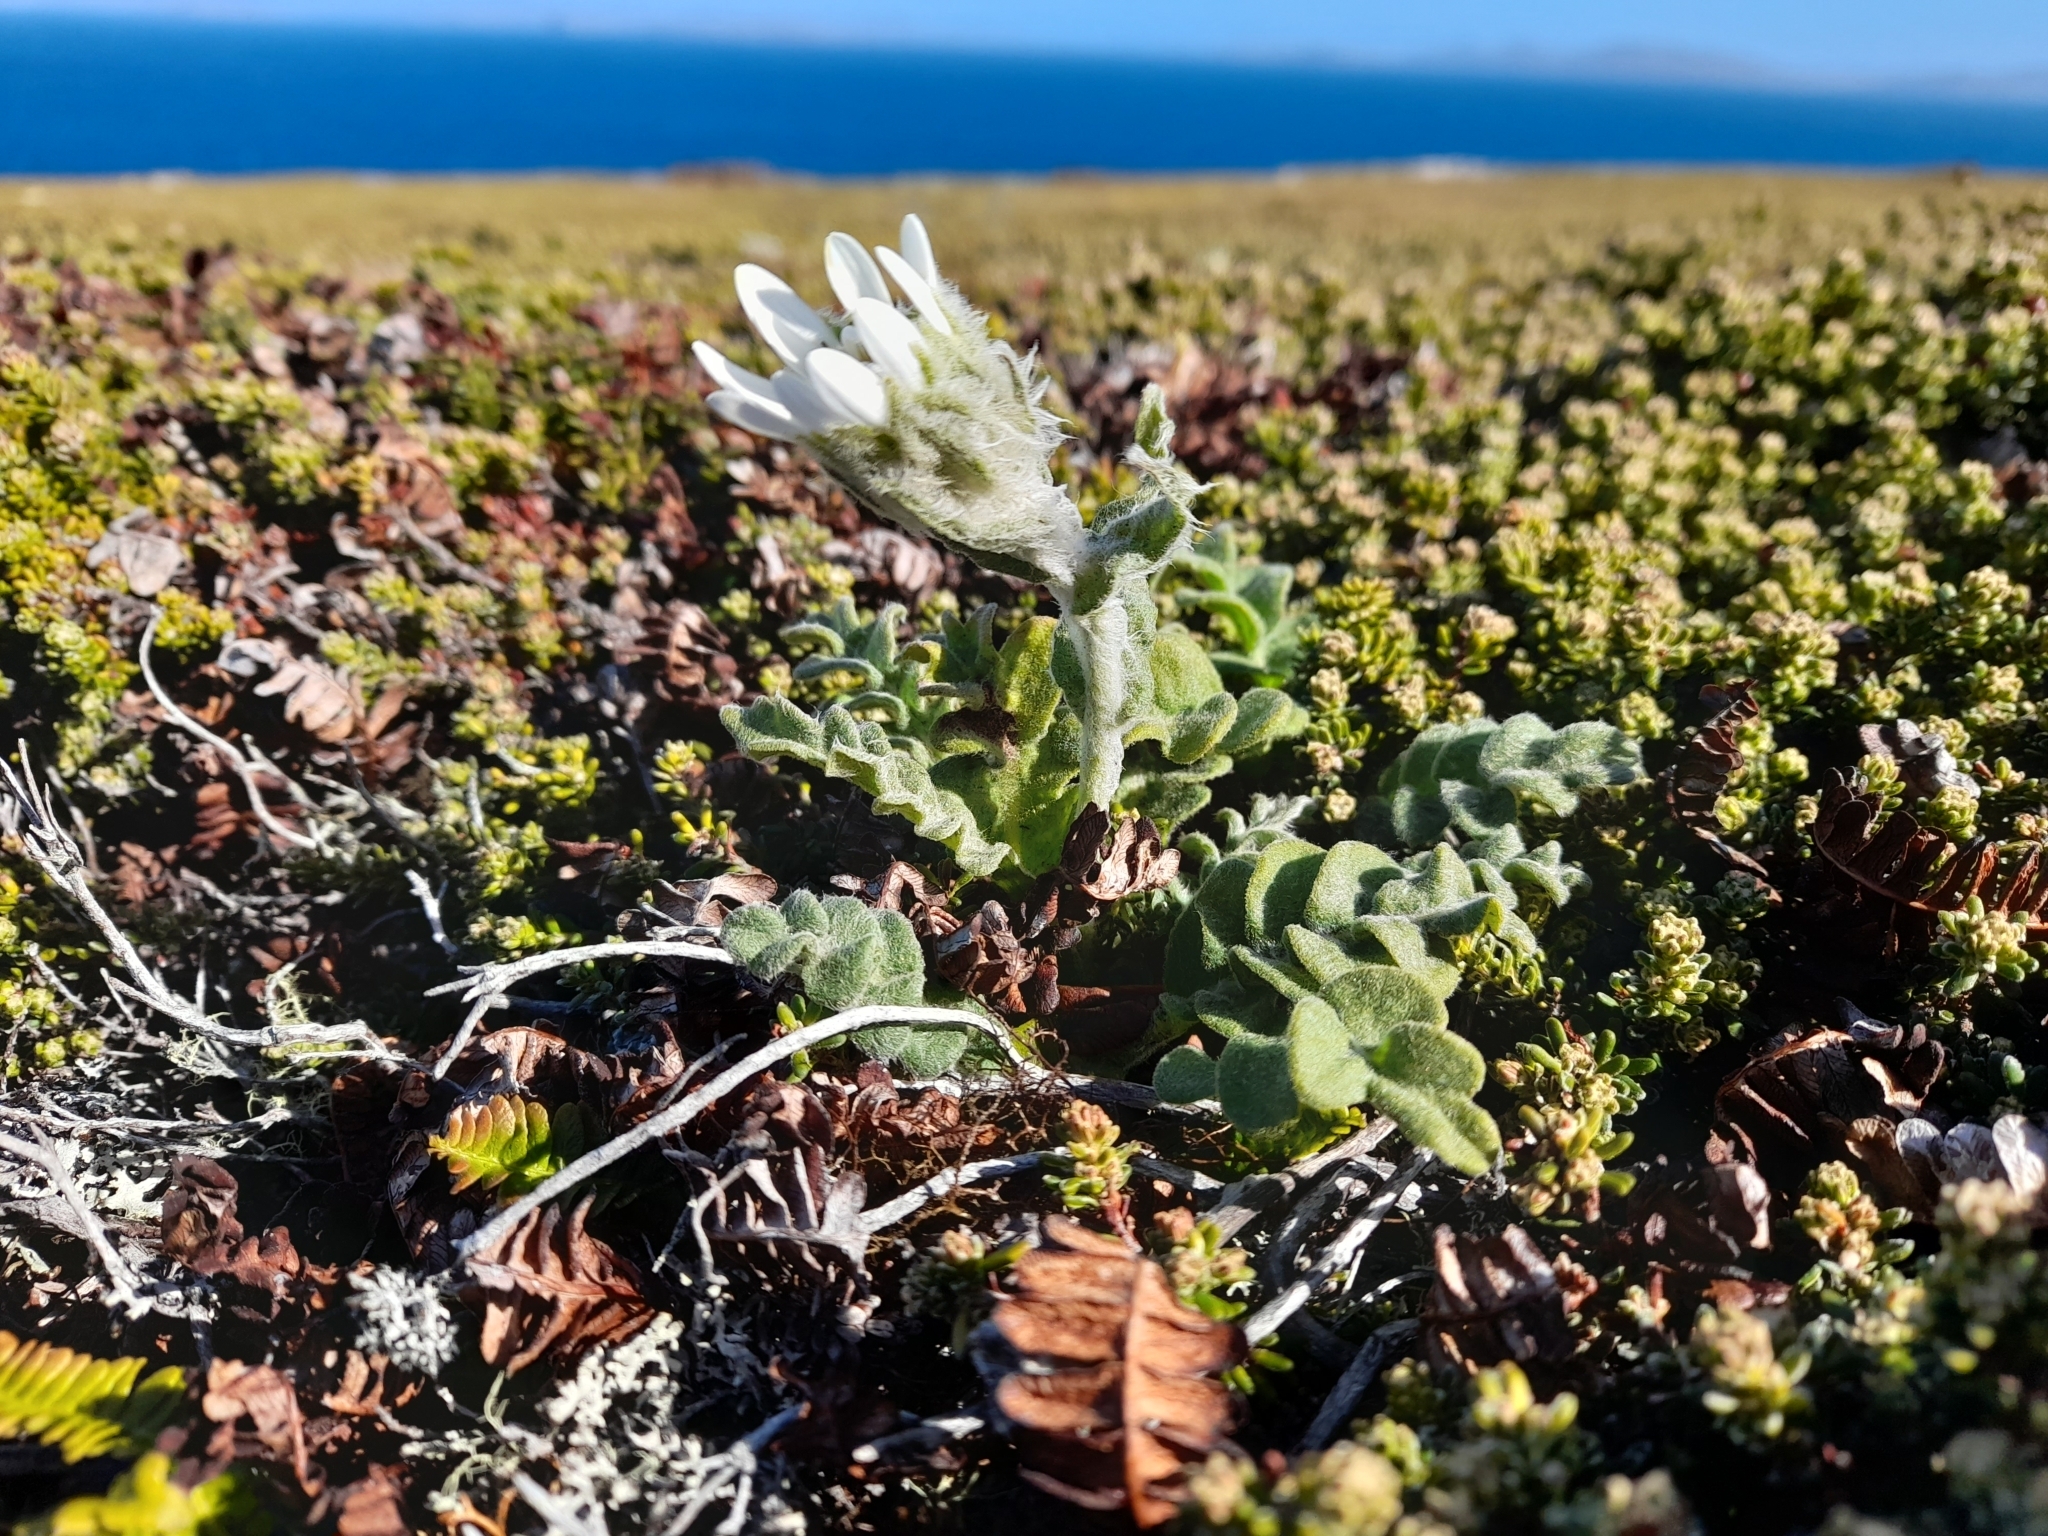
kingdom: Plantae
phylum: Tracheophyta
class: Magnoliopsida
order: Asterales
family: Asteraceae
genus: Leucheria
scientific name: Leucheria suaveolens
